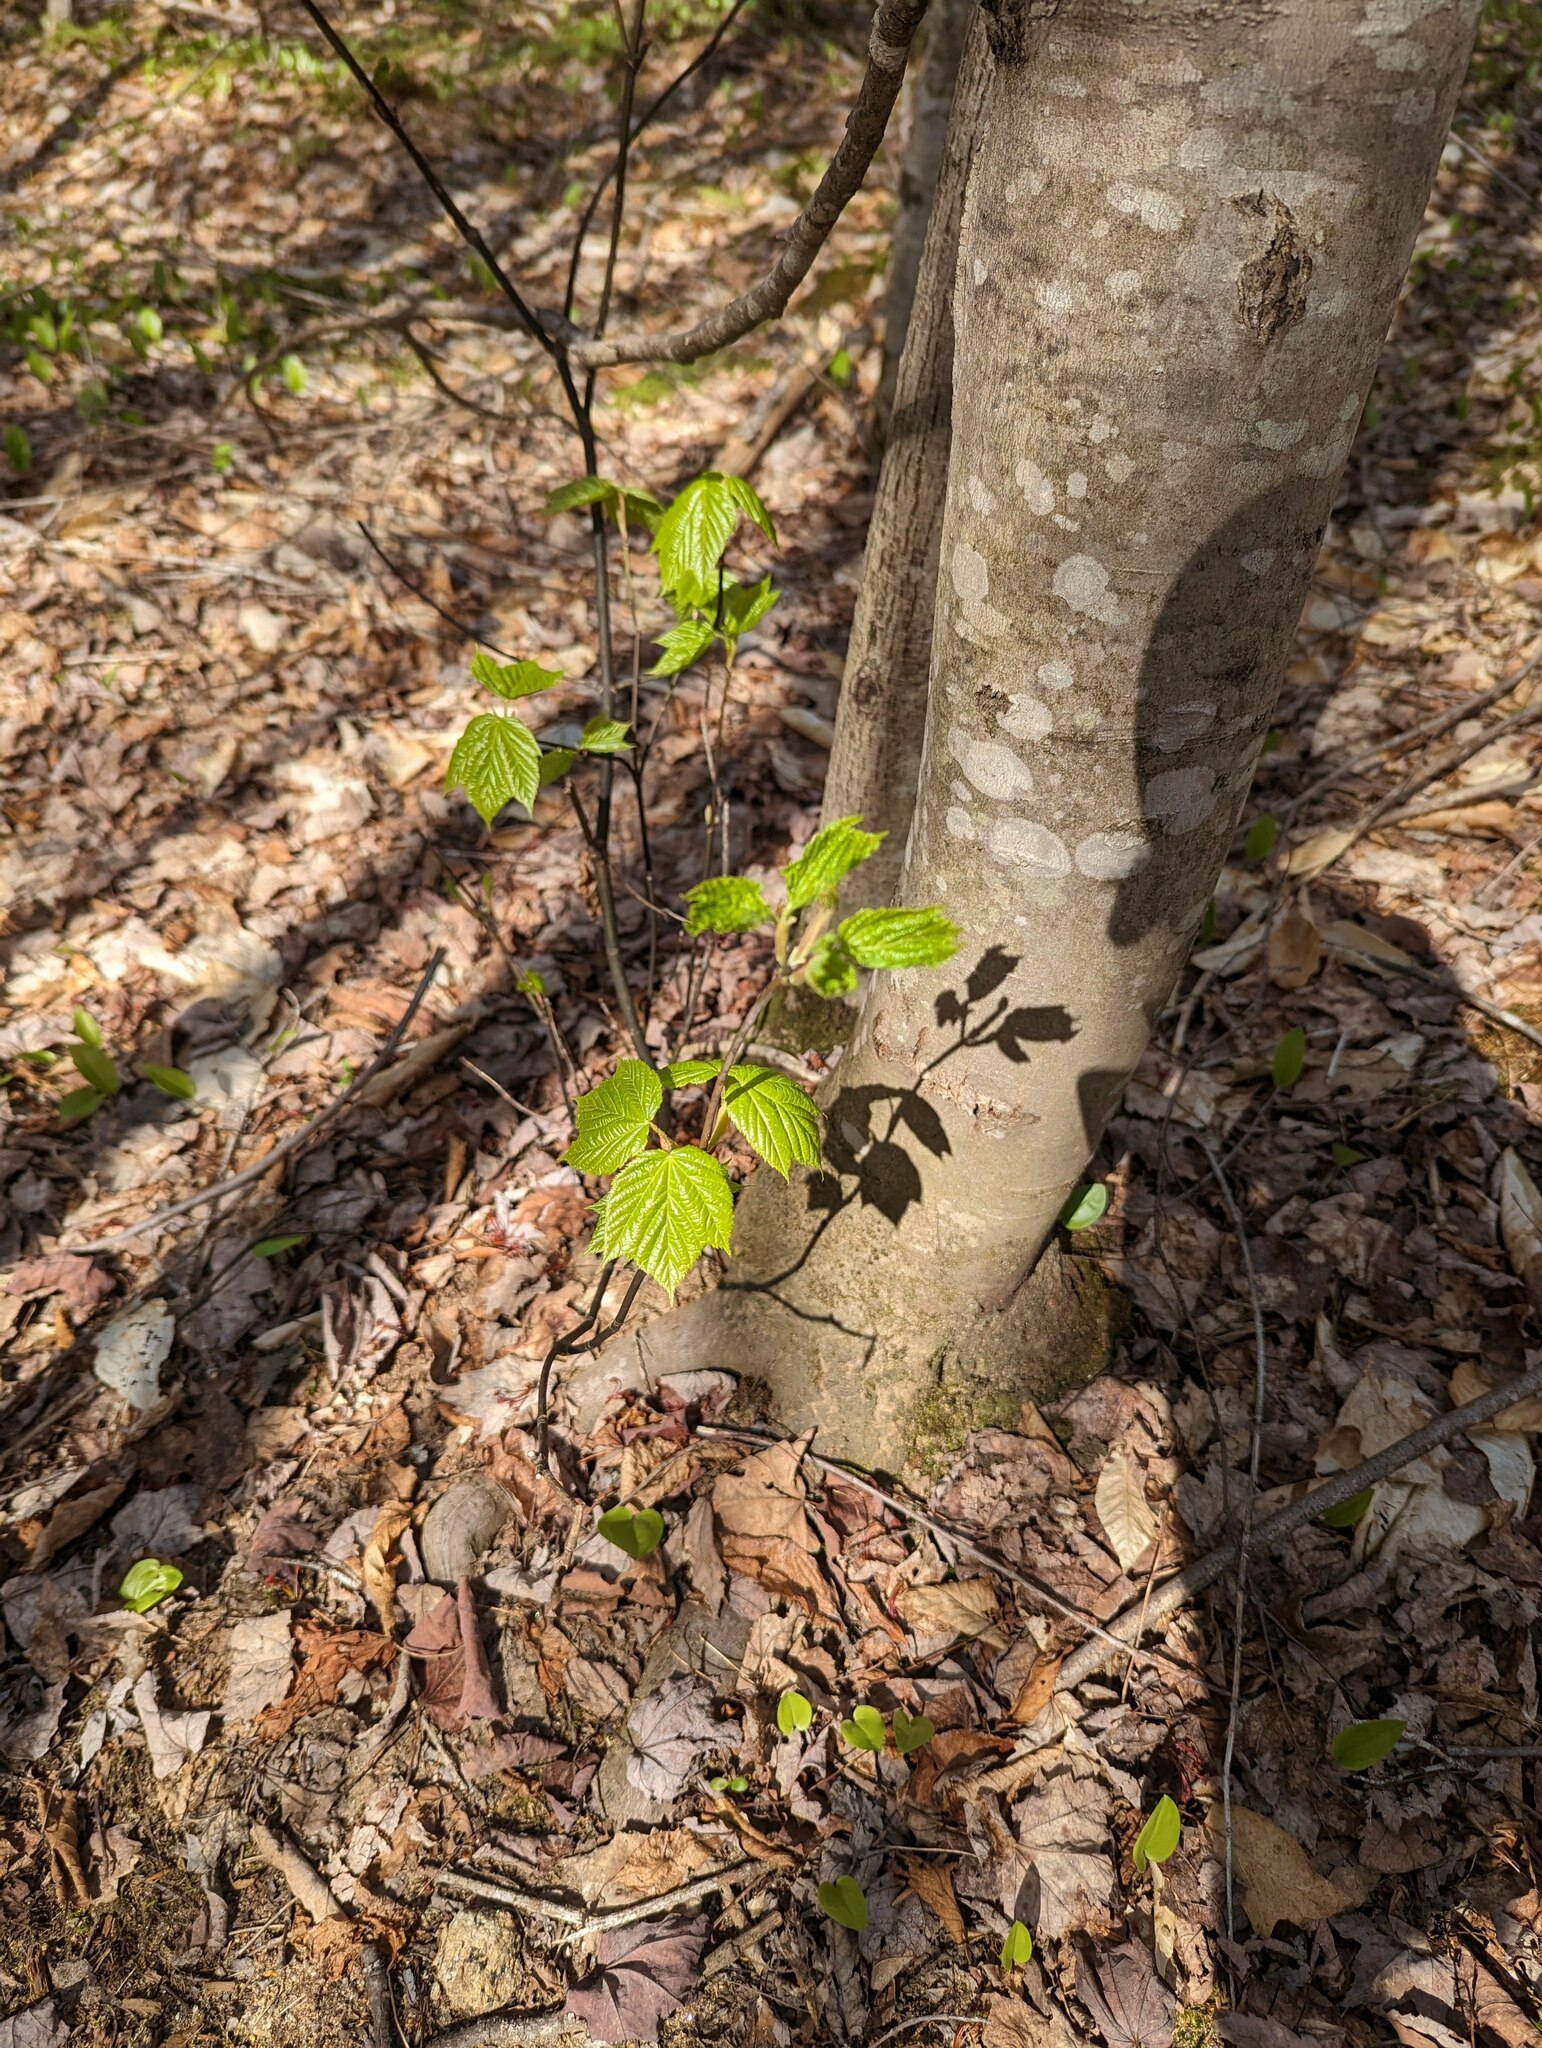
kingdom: Plantae
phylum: Tracheophyta
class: Magnoliopsida
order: Sapindales
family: Sapindaceae
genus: Acer
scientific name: Acer pensylvanicum
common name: Moosewood
